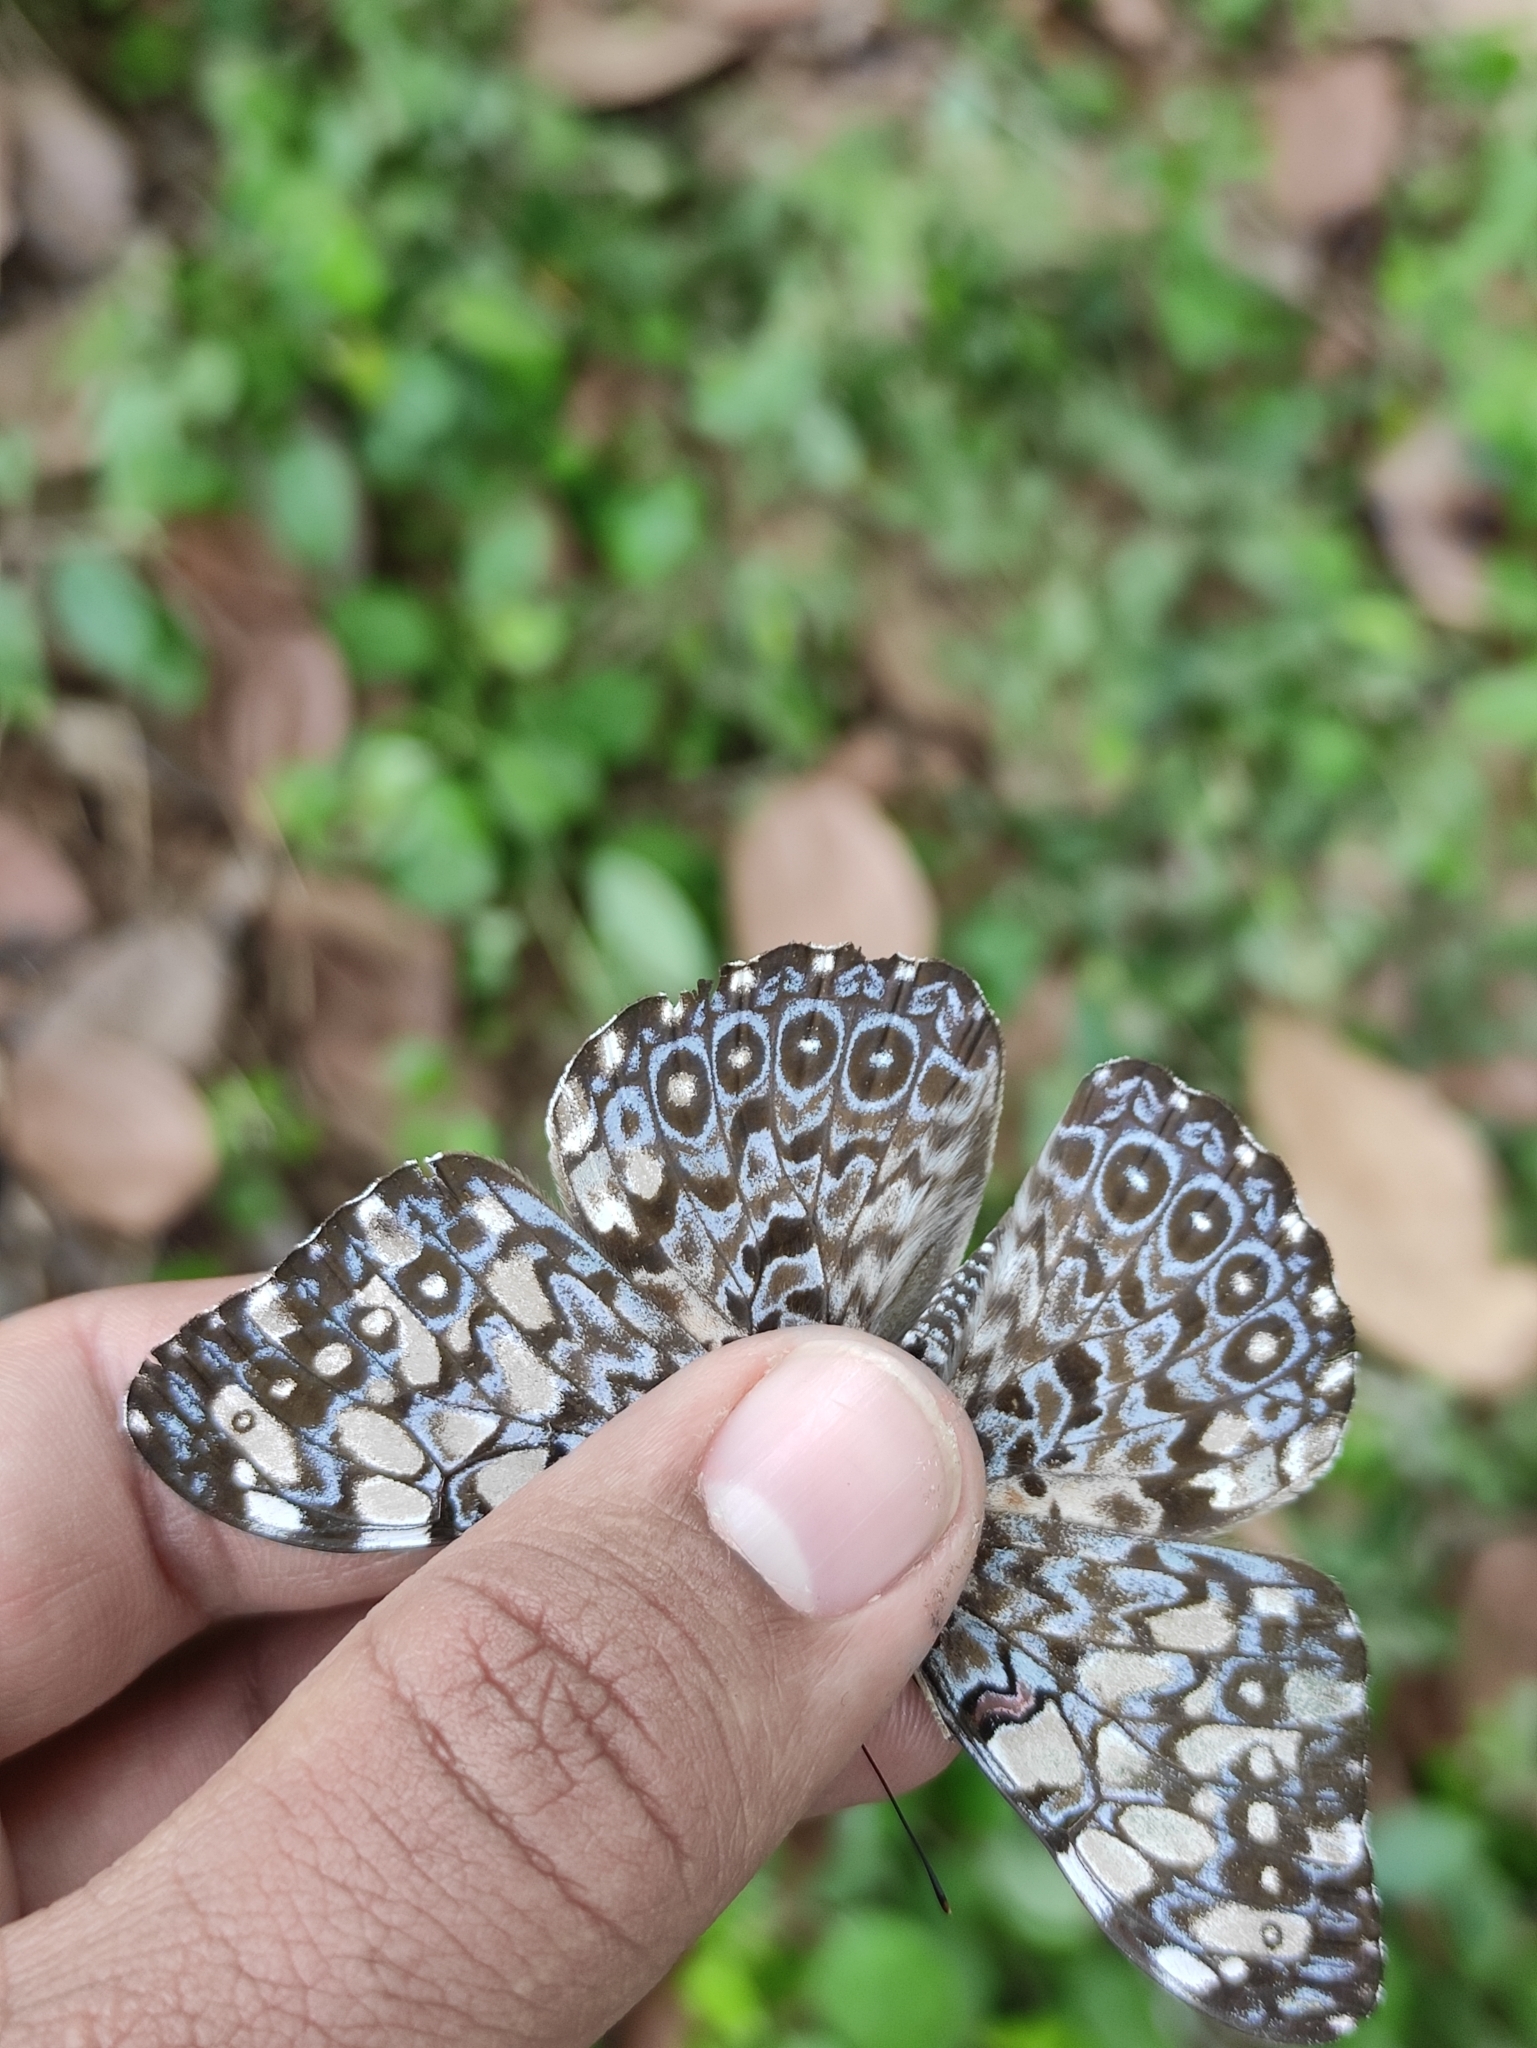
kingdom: Animalia
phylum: Arthropoda
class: Insecta
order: Lepidoptera
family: Nymphalidae
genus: Hamadryas
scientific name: Hamadryas feronia
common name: Variable cracker
